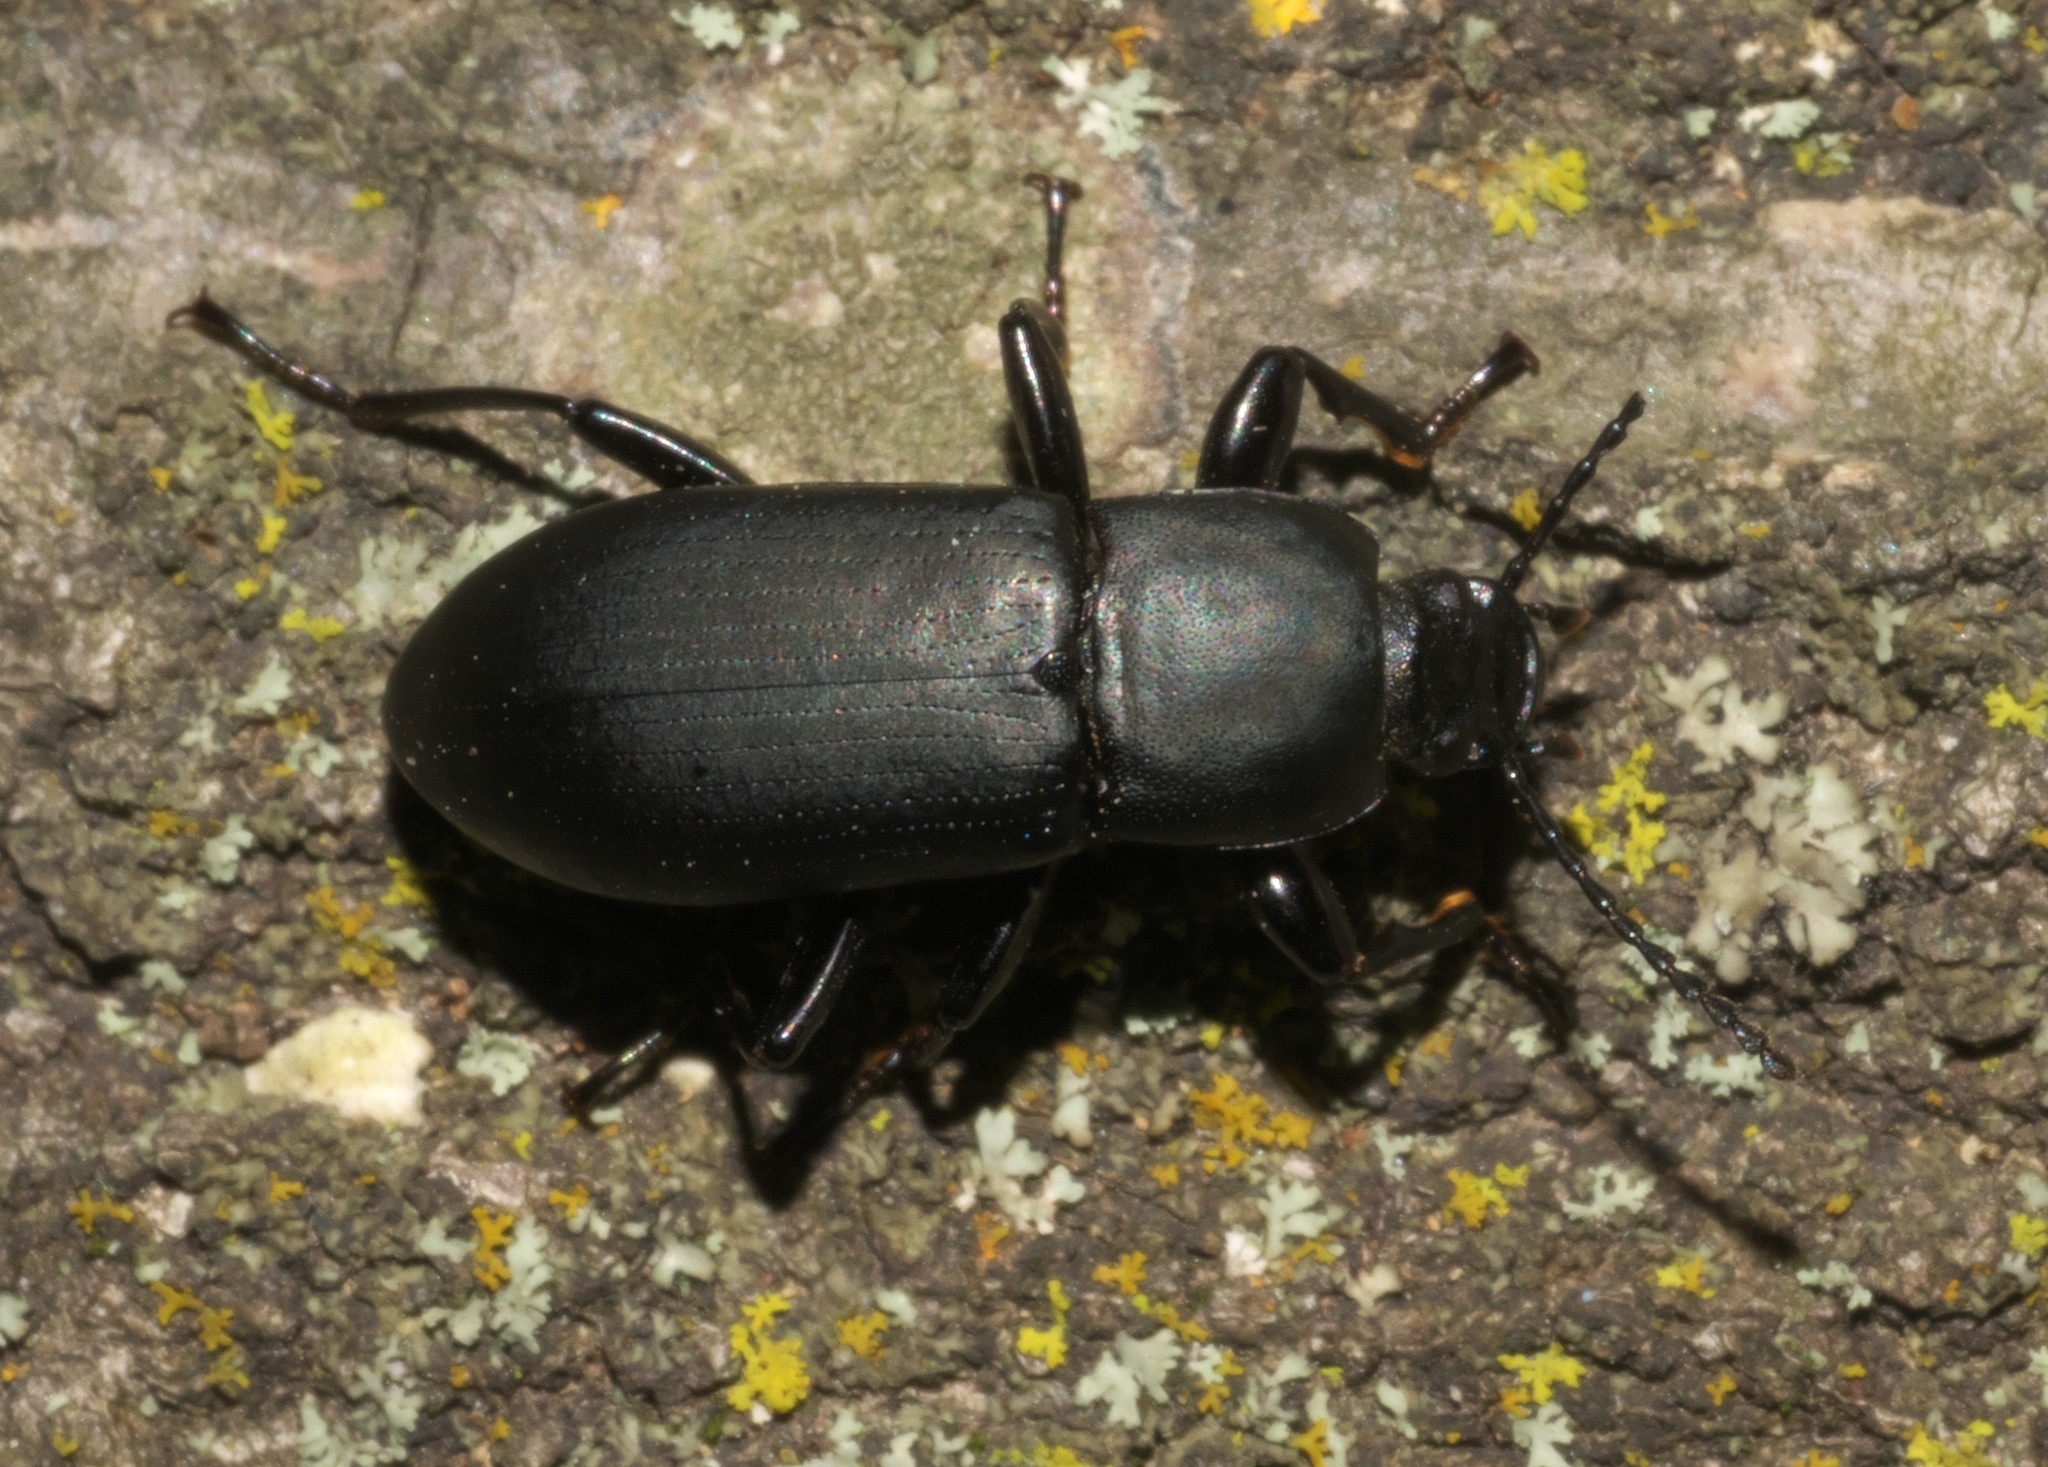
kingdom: Animalia
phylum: Arthropoda
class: Insecta
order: Coleoptera
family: Tenebrionidae
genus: Centronopus
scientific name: Centronopus opacus
